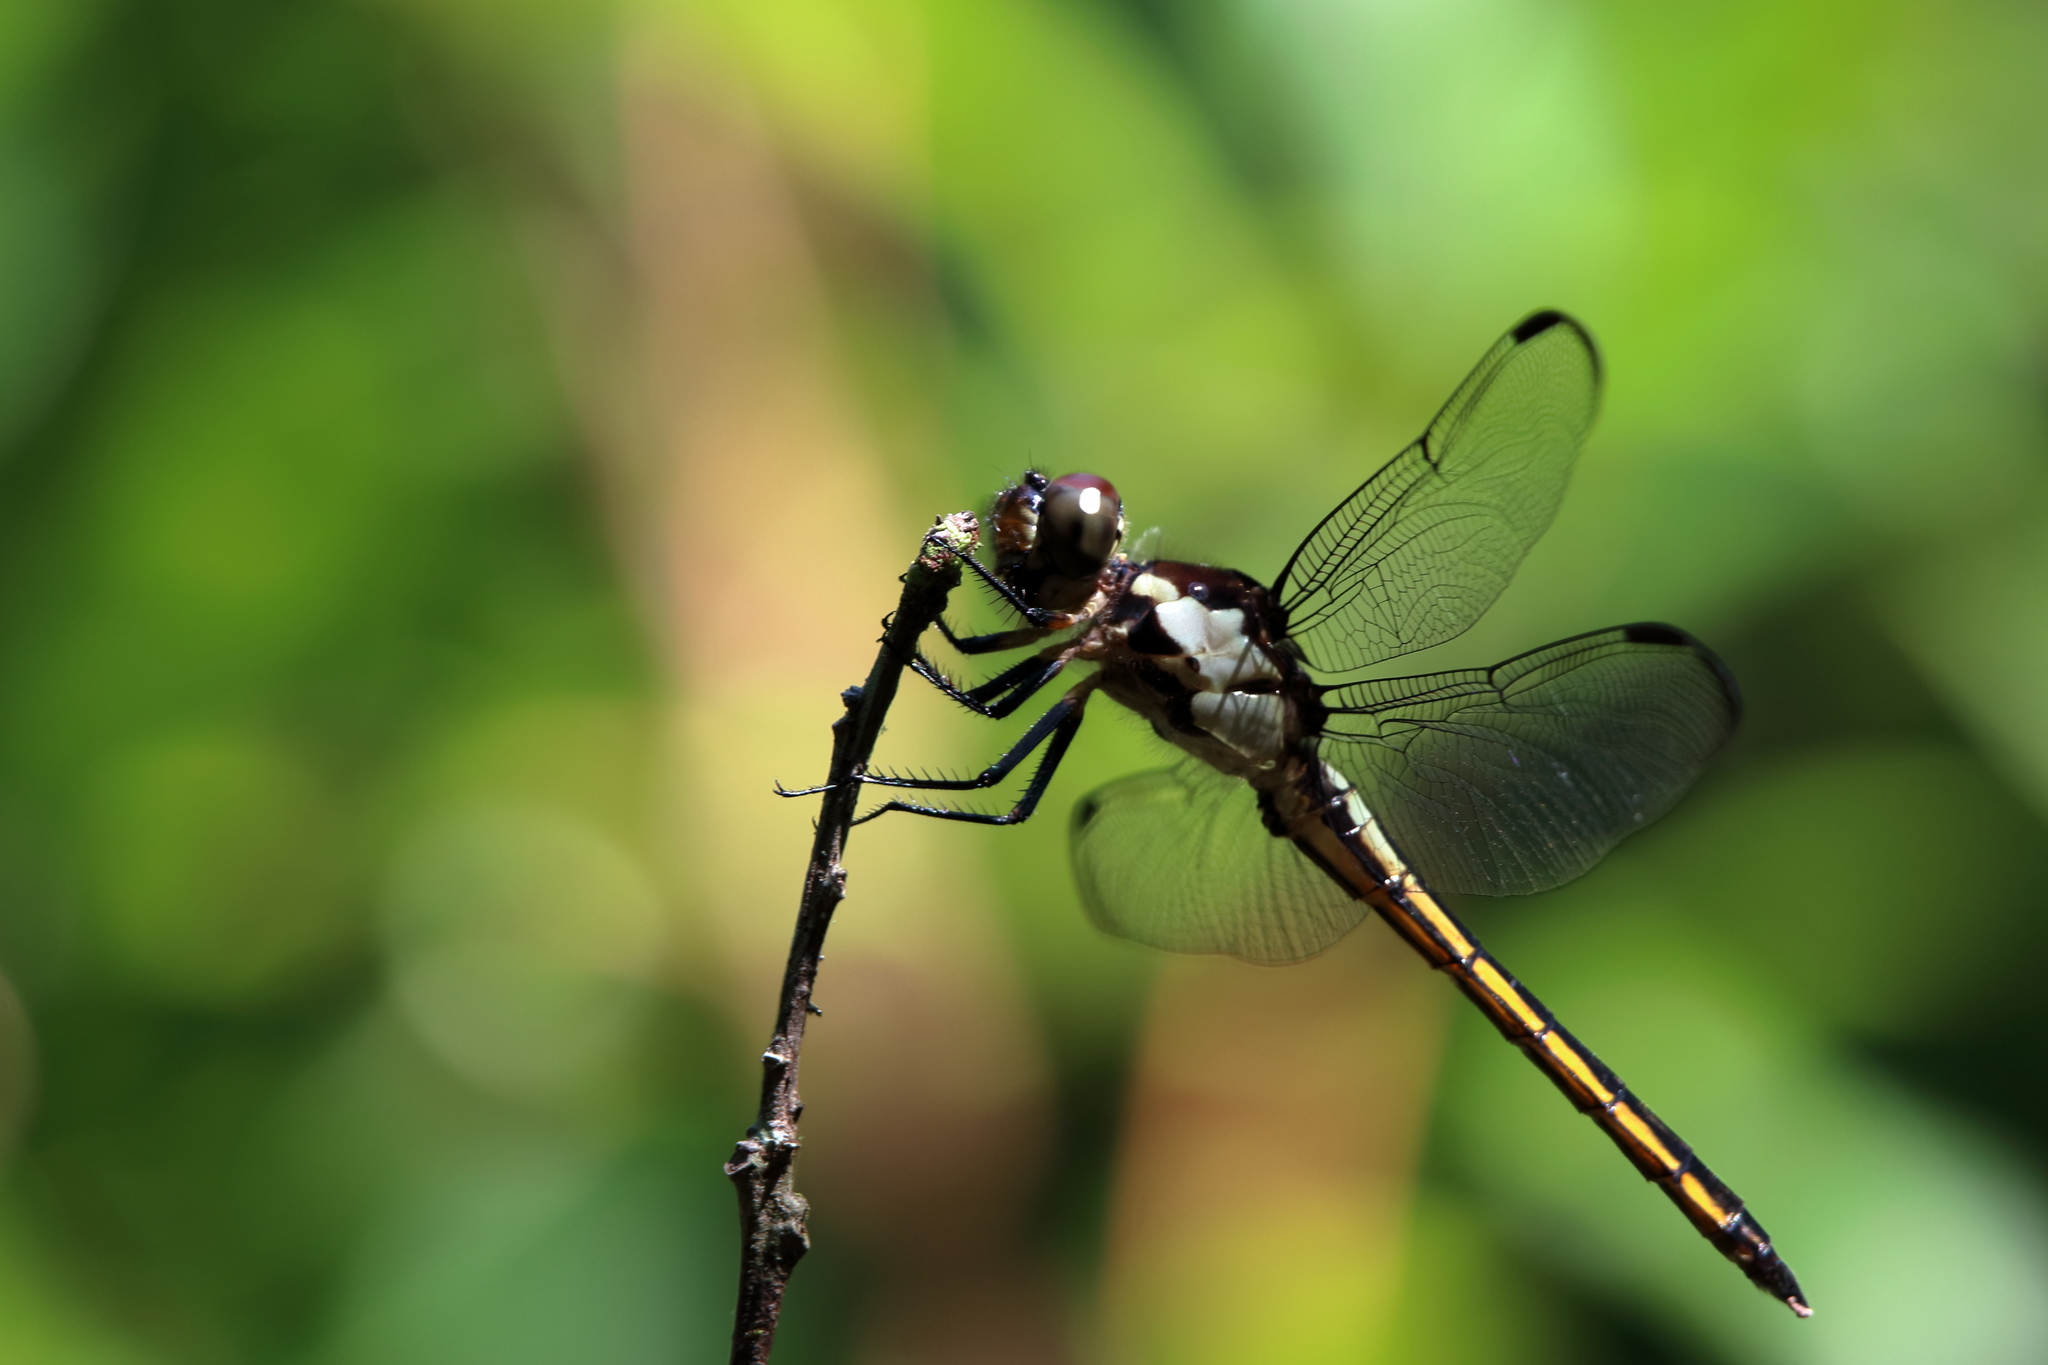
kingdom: Animalia
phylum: Arthropoda
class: Insecta
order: Odonata
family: Libellulidae
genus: Libellula
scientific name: Libellula incesta
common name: Slaty skimmer
